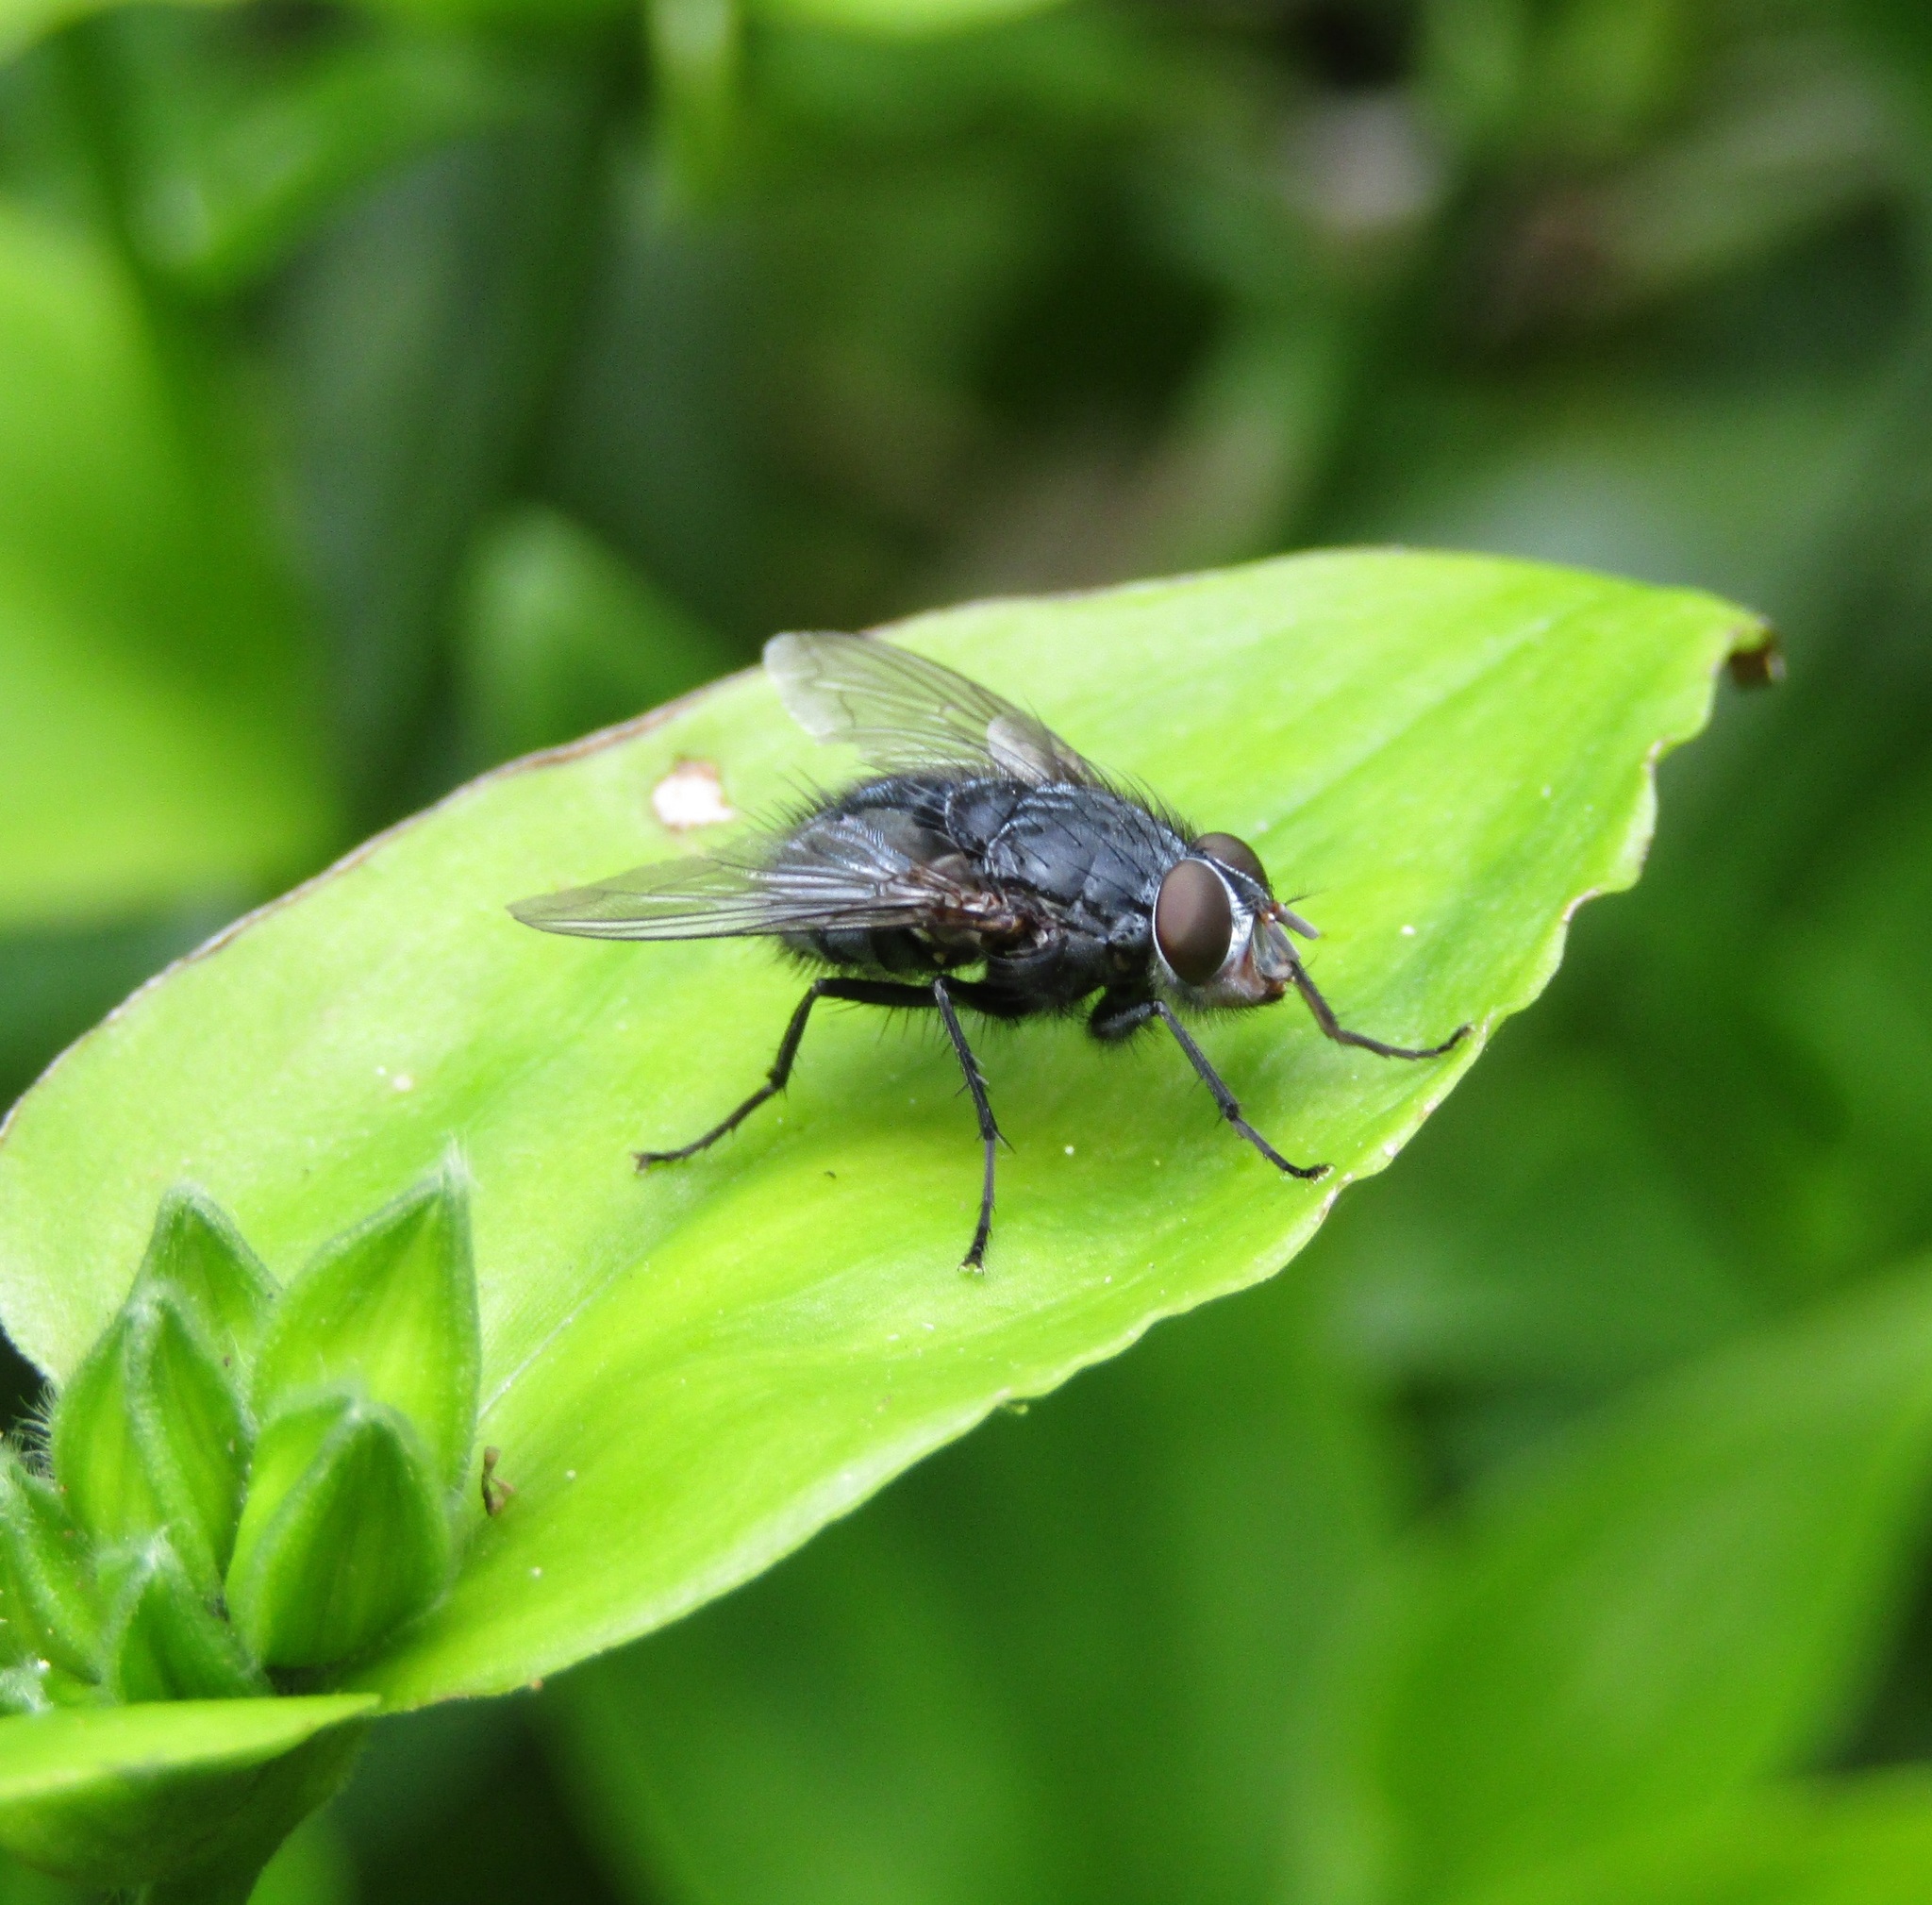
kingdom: Animalia
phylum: Arthropoda
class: Insecta
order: Diptera
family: Calliphoridae
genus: Calliphora
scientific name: Calliphora vicina
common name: Common blow flie
